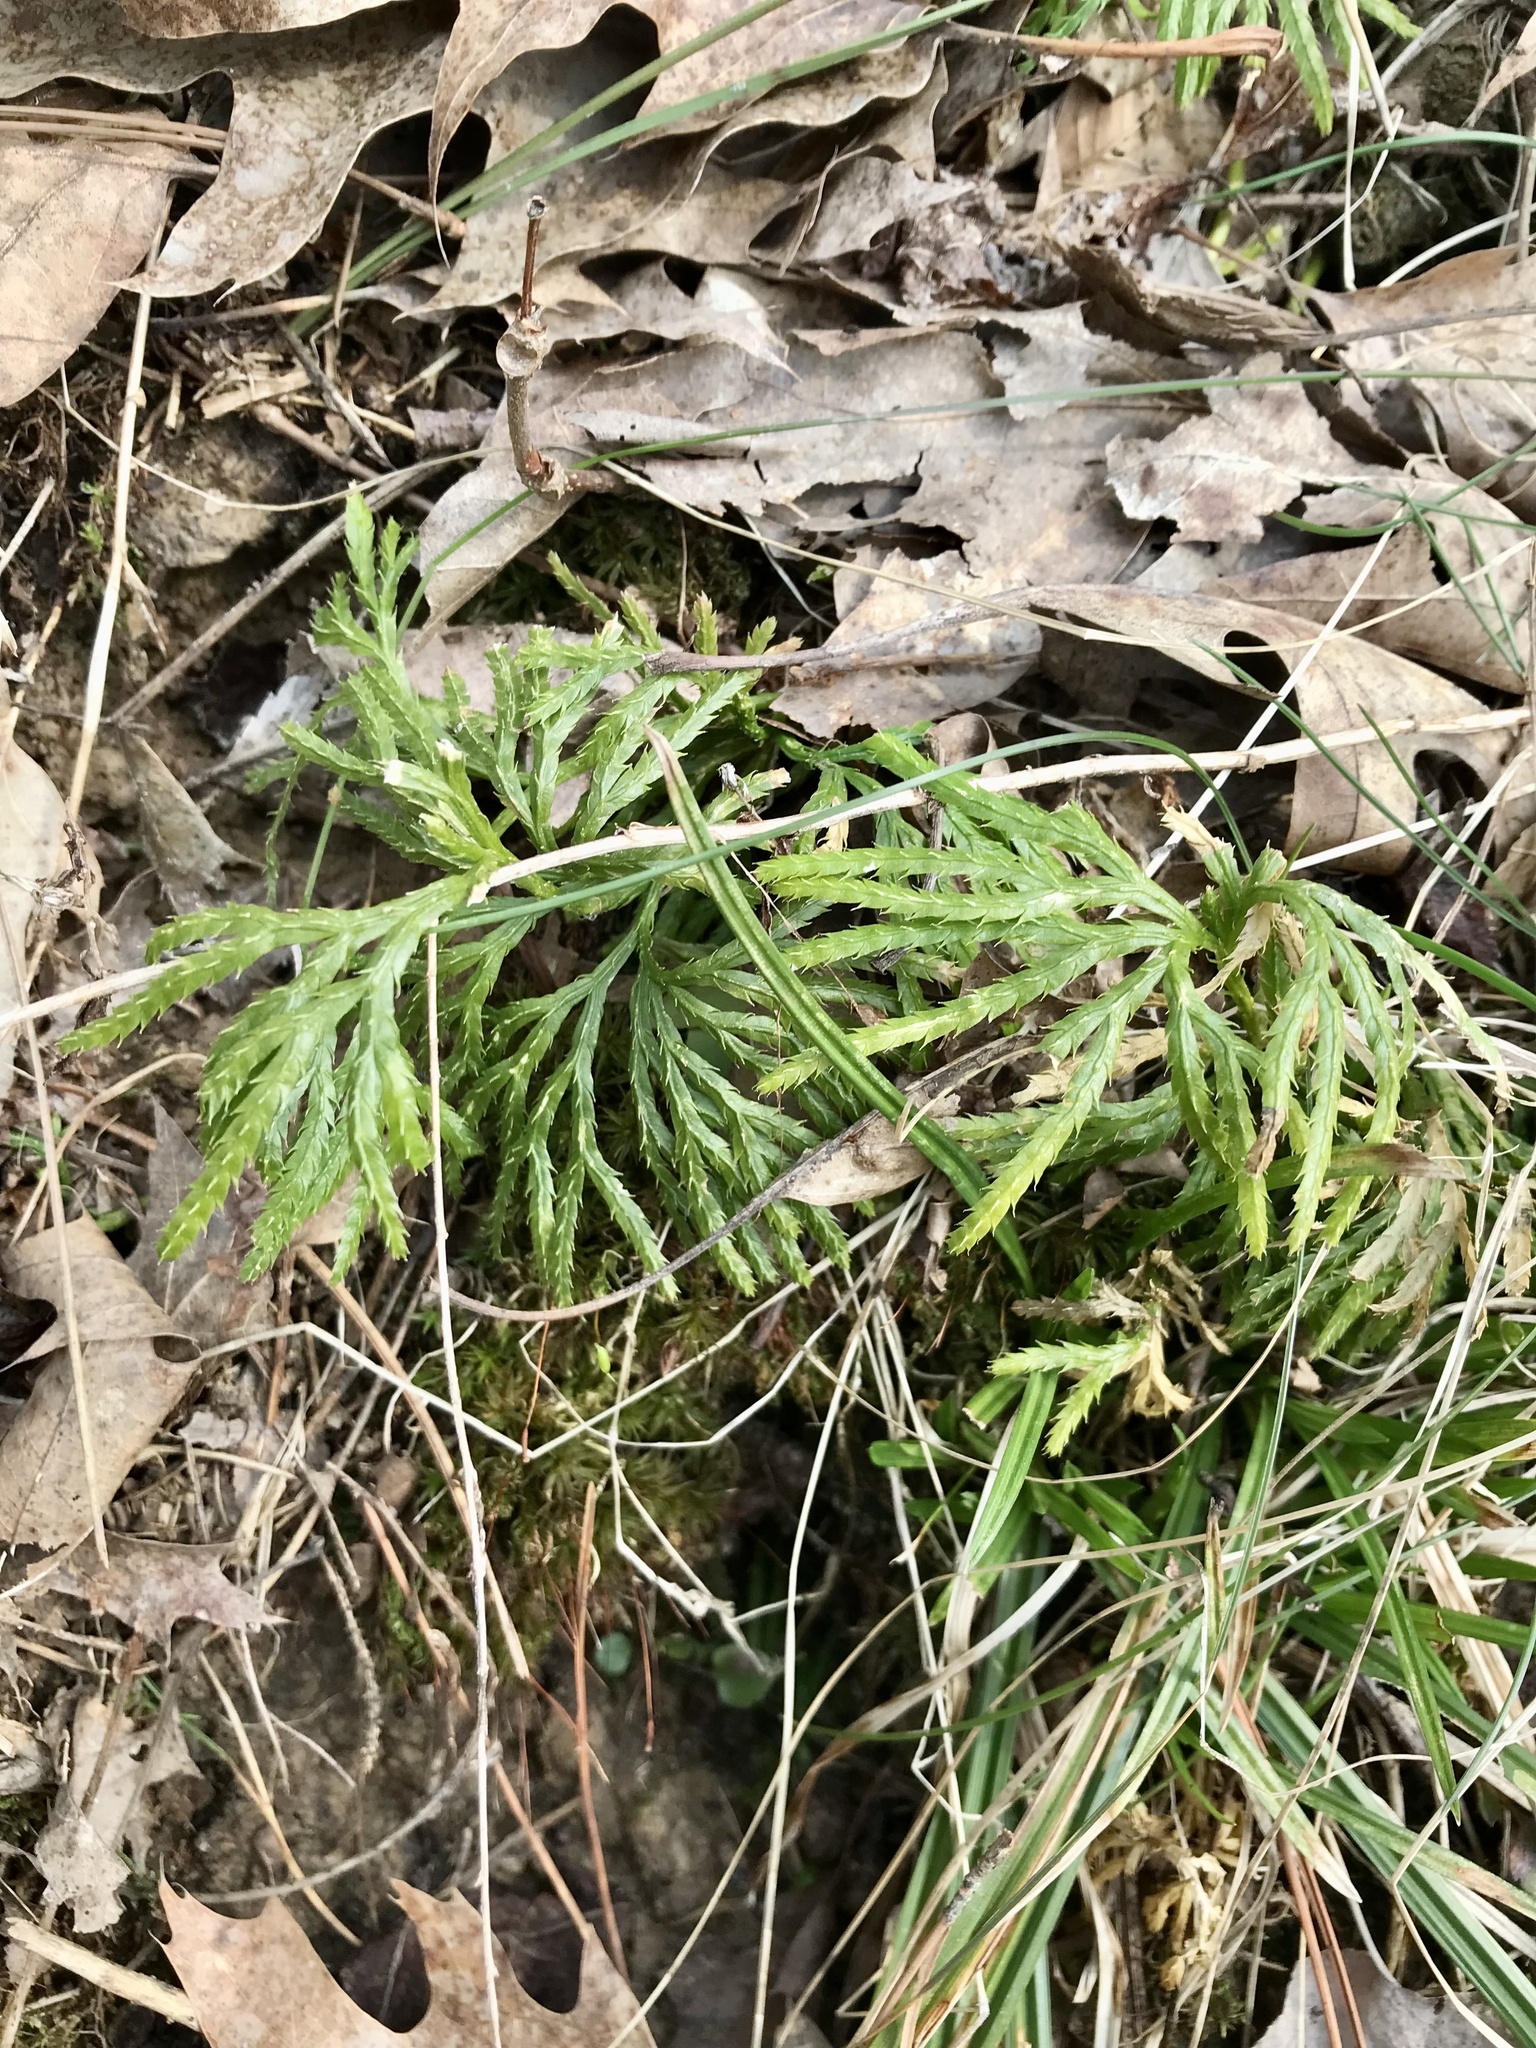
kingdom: Plantae
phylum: Tracheophyta
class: Lycopodiopsida
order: Lycopodiales
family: Lycopodiaceae
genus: Diphasiastrum
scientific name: Diphasiastrum digitatum
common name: Southern running-pine
